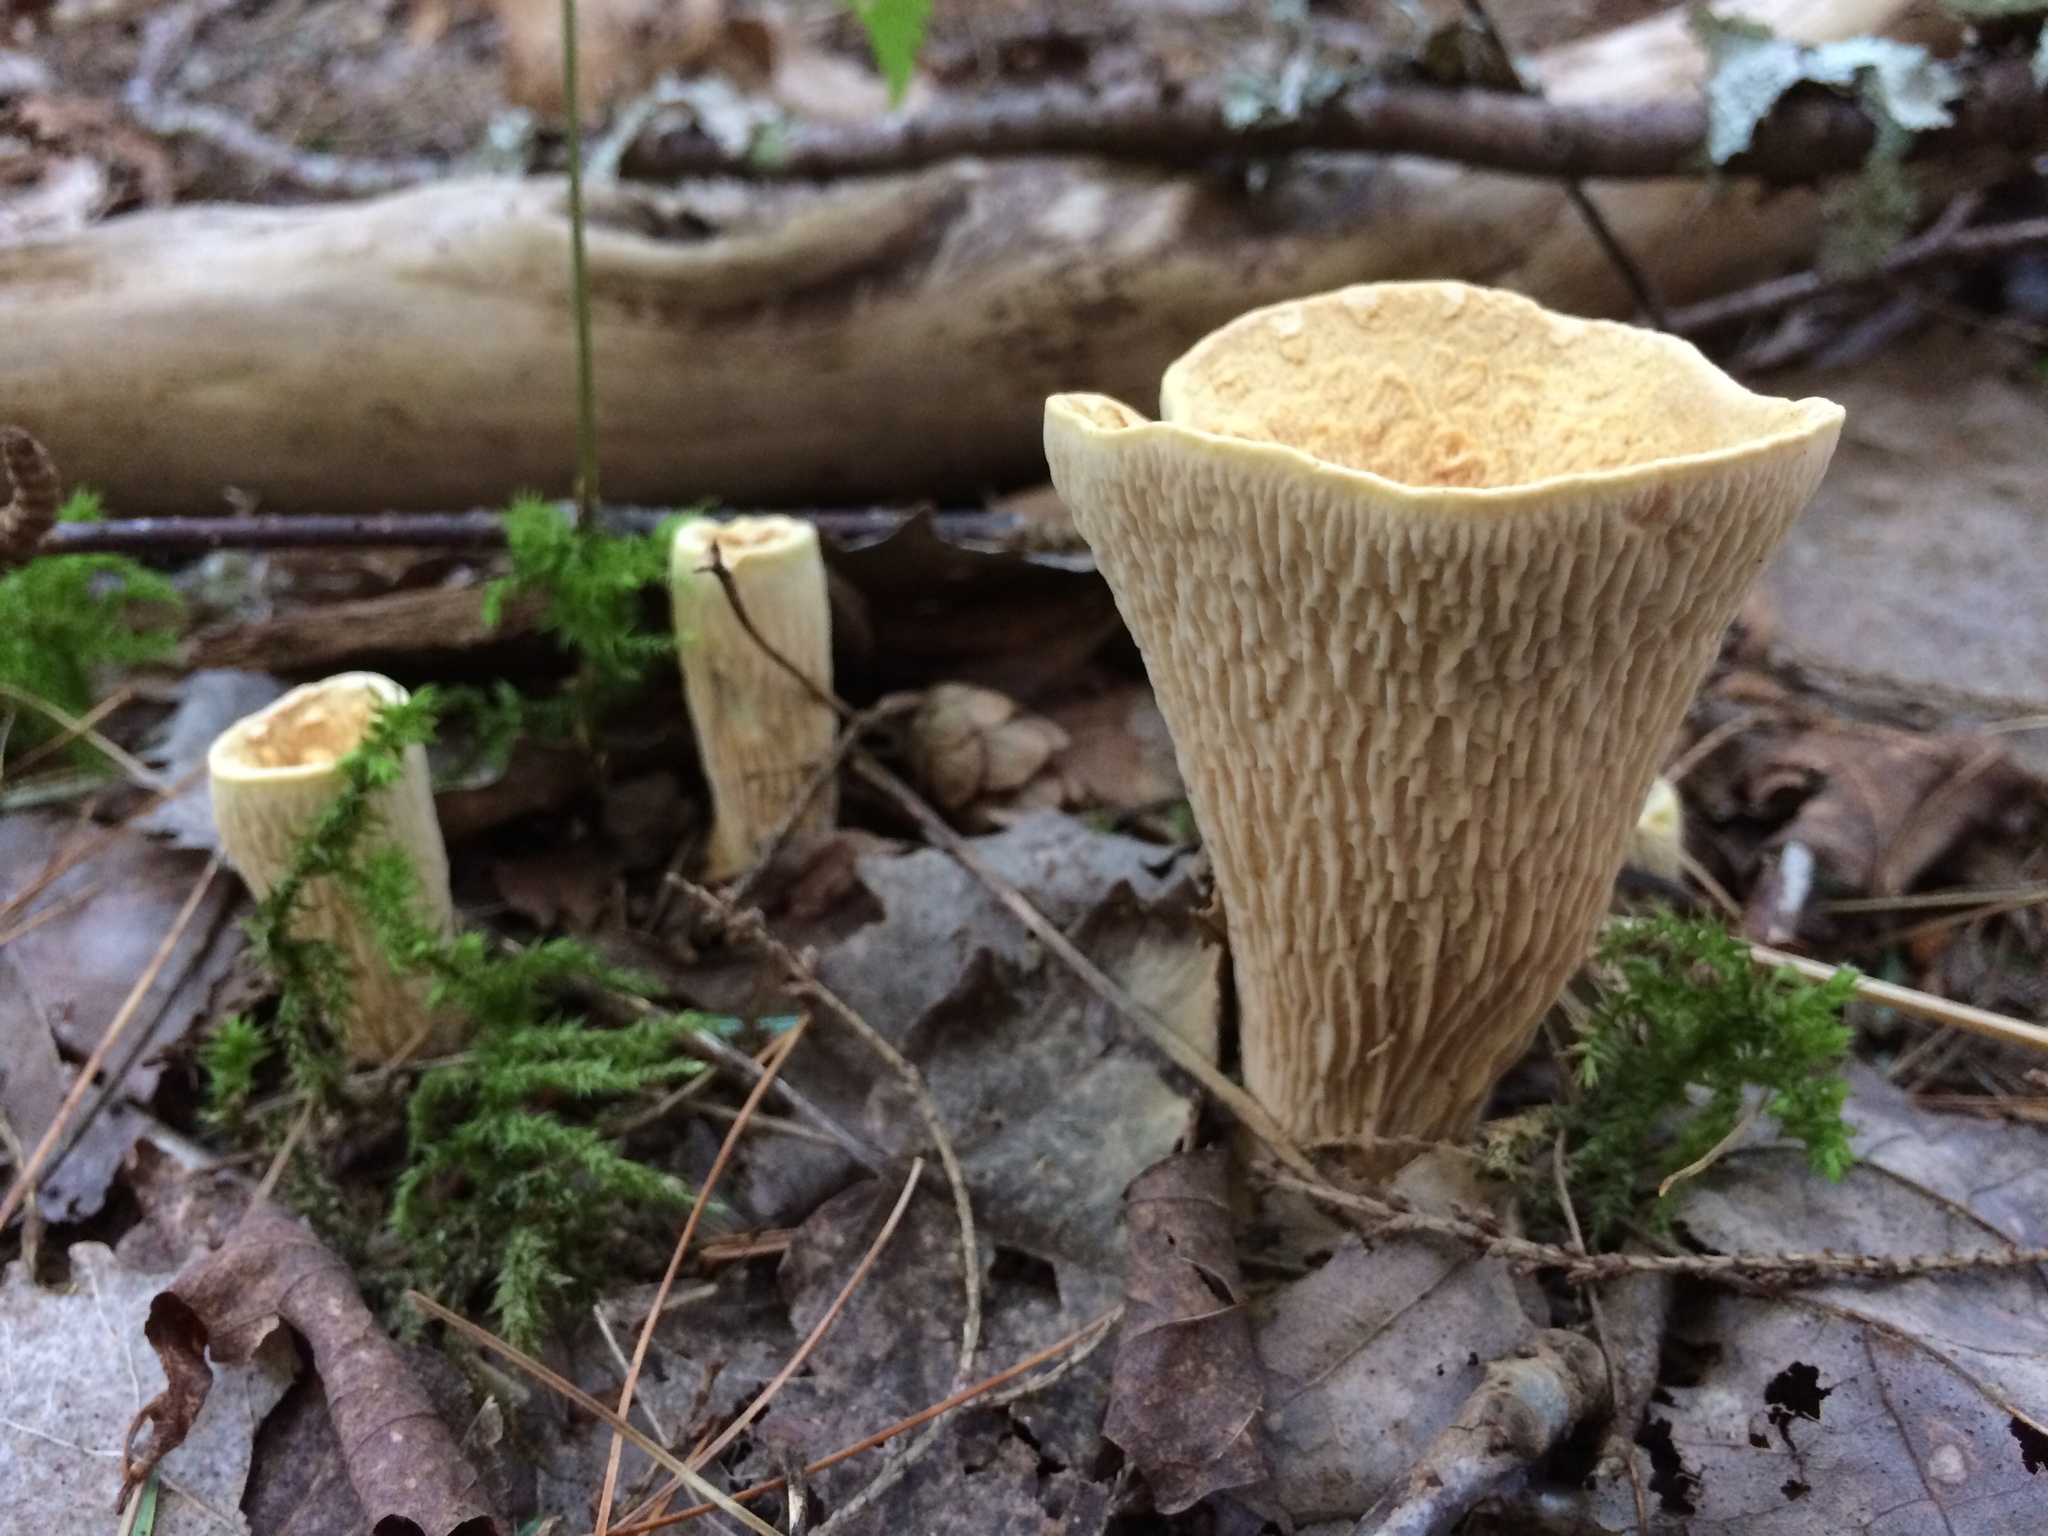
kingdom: Fungi
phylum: Basidiomycota
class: Agaricomycetes
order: Gomphales
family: Gomphaceae
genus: Turbinellus
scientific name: Turbinellus floccosus
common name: Scaly chanterelle
